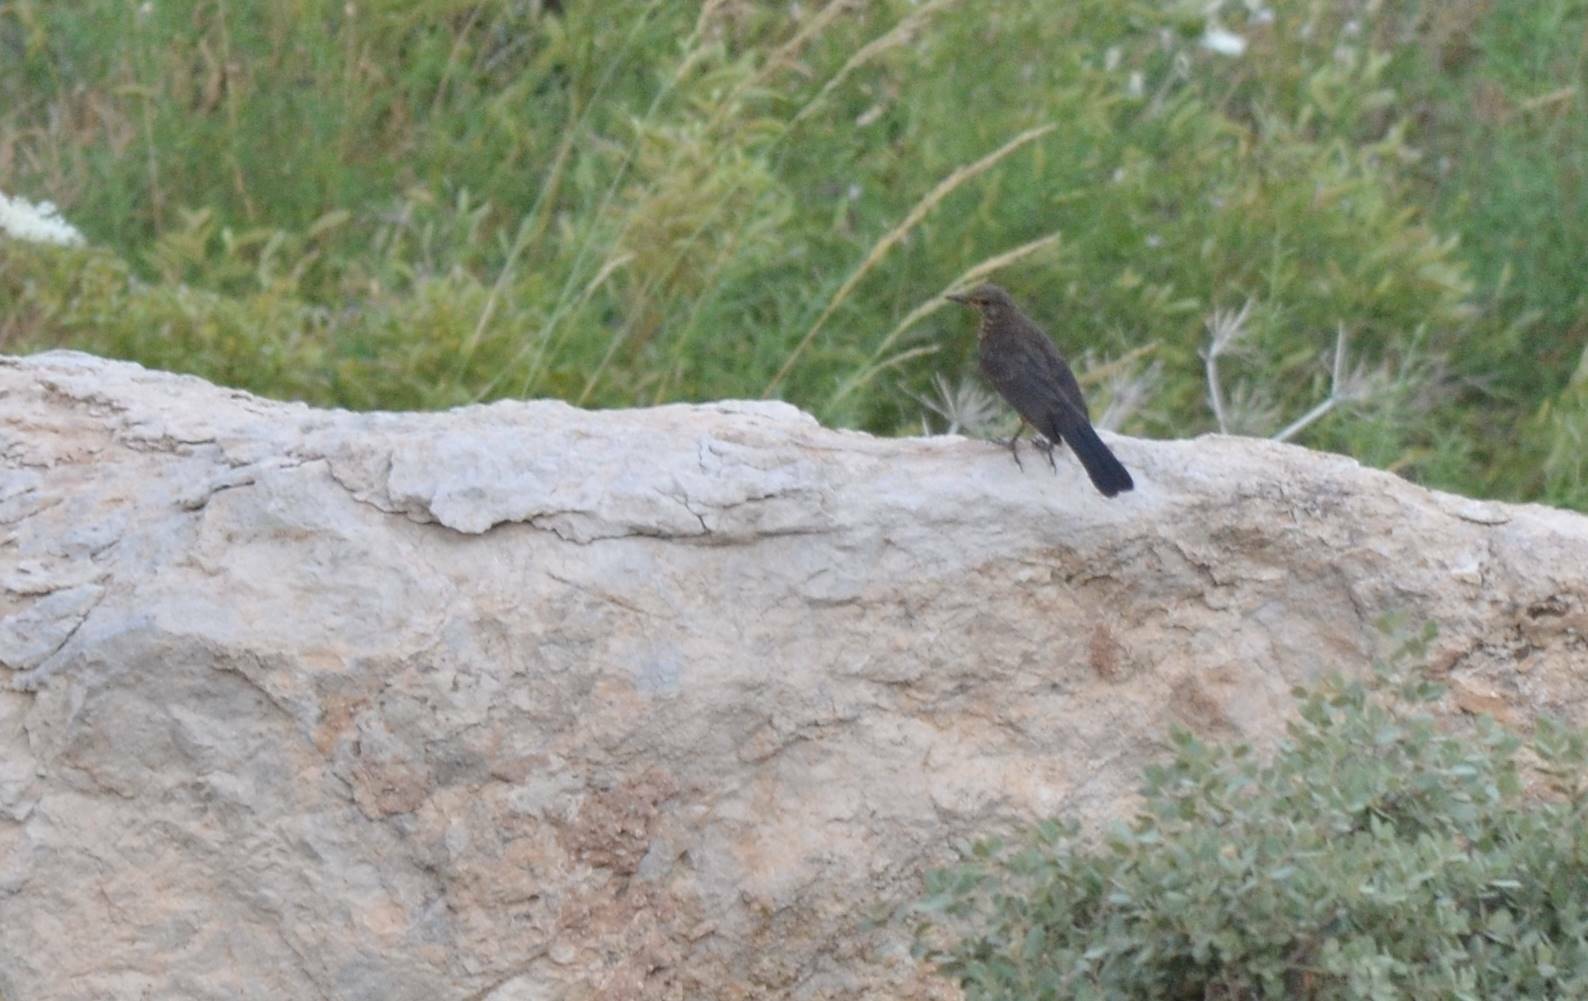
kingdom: Animalia
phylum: Chordata
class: Aves
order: Passeriformes
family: Muscicapidae
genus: Monticola
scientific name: Monticola solitarius
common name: Blue rock thrush
